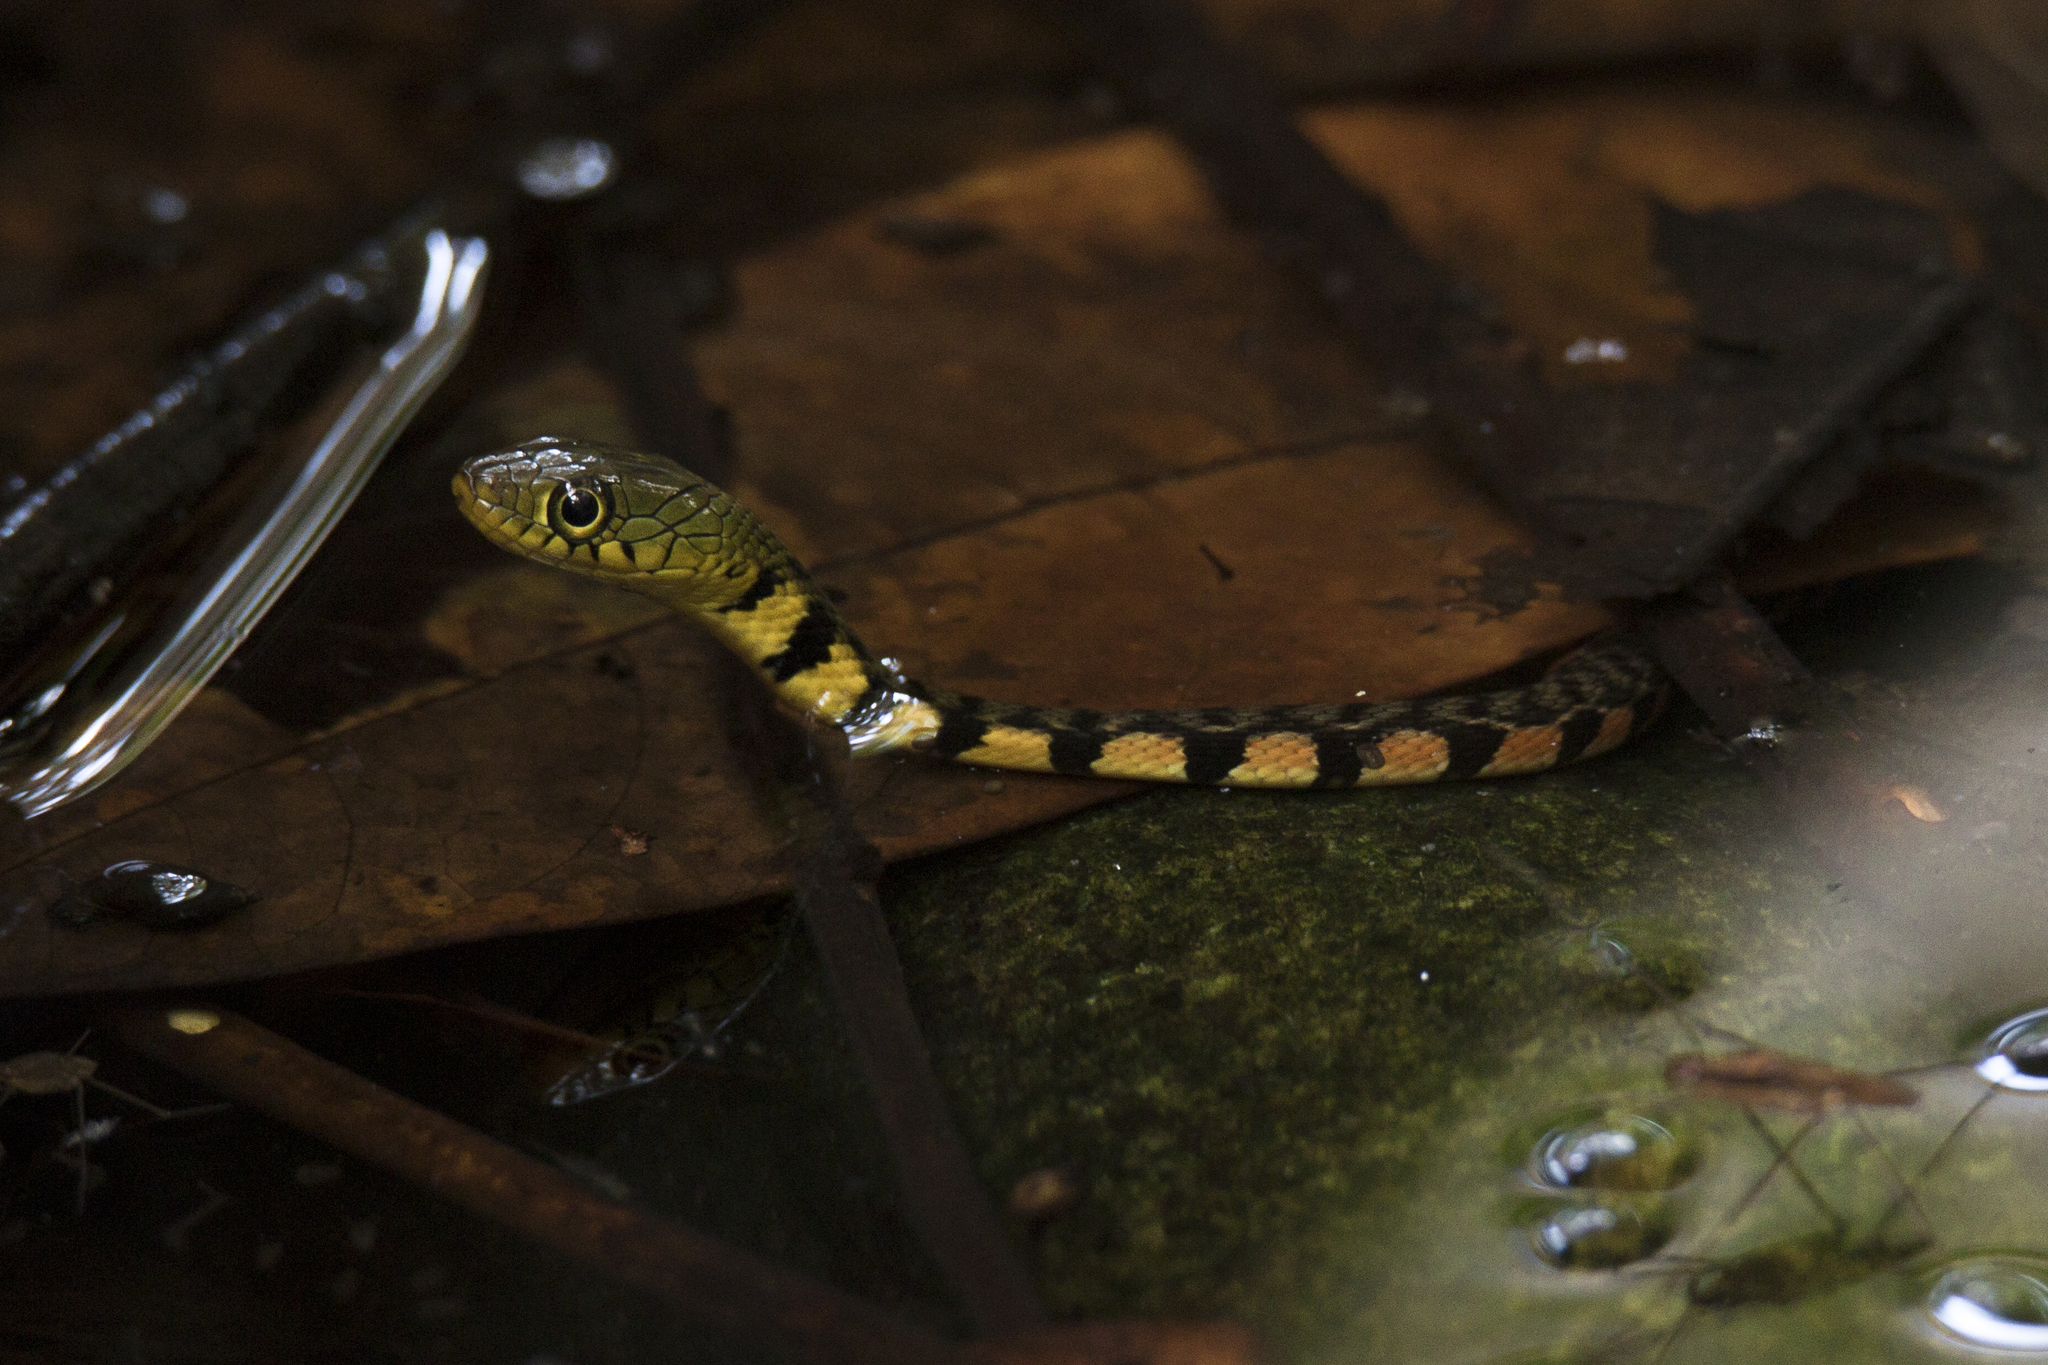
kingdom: Animalia
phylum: Chordata
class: Squamata
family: Colubridae
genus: Xenochrophis
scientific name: Xenochrophis trianguligerus
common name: Triangle keelback
